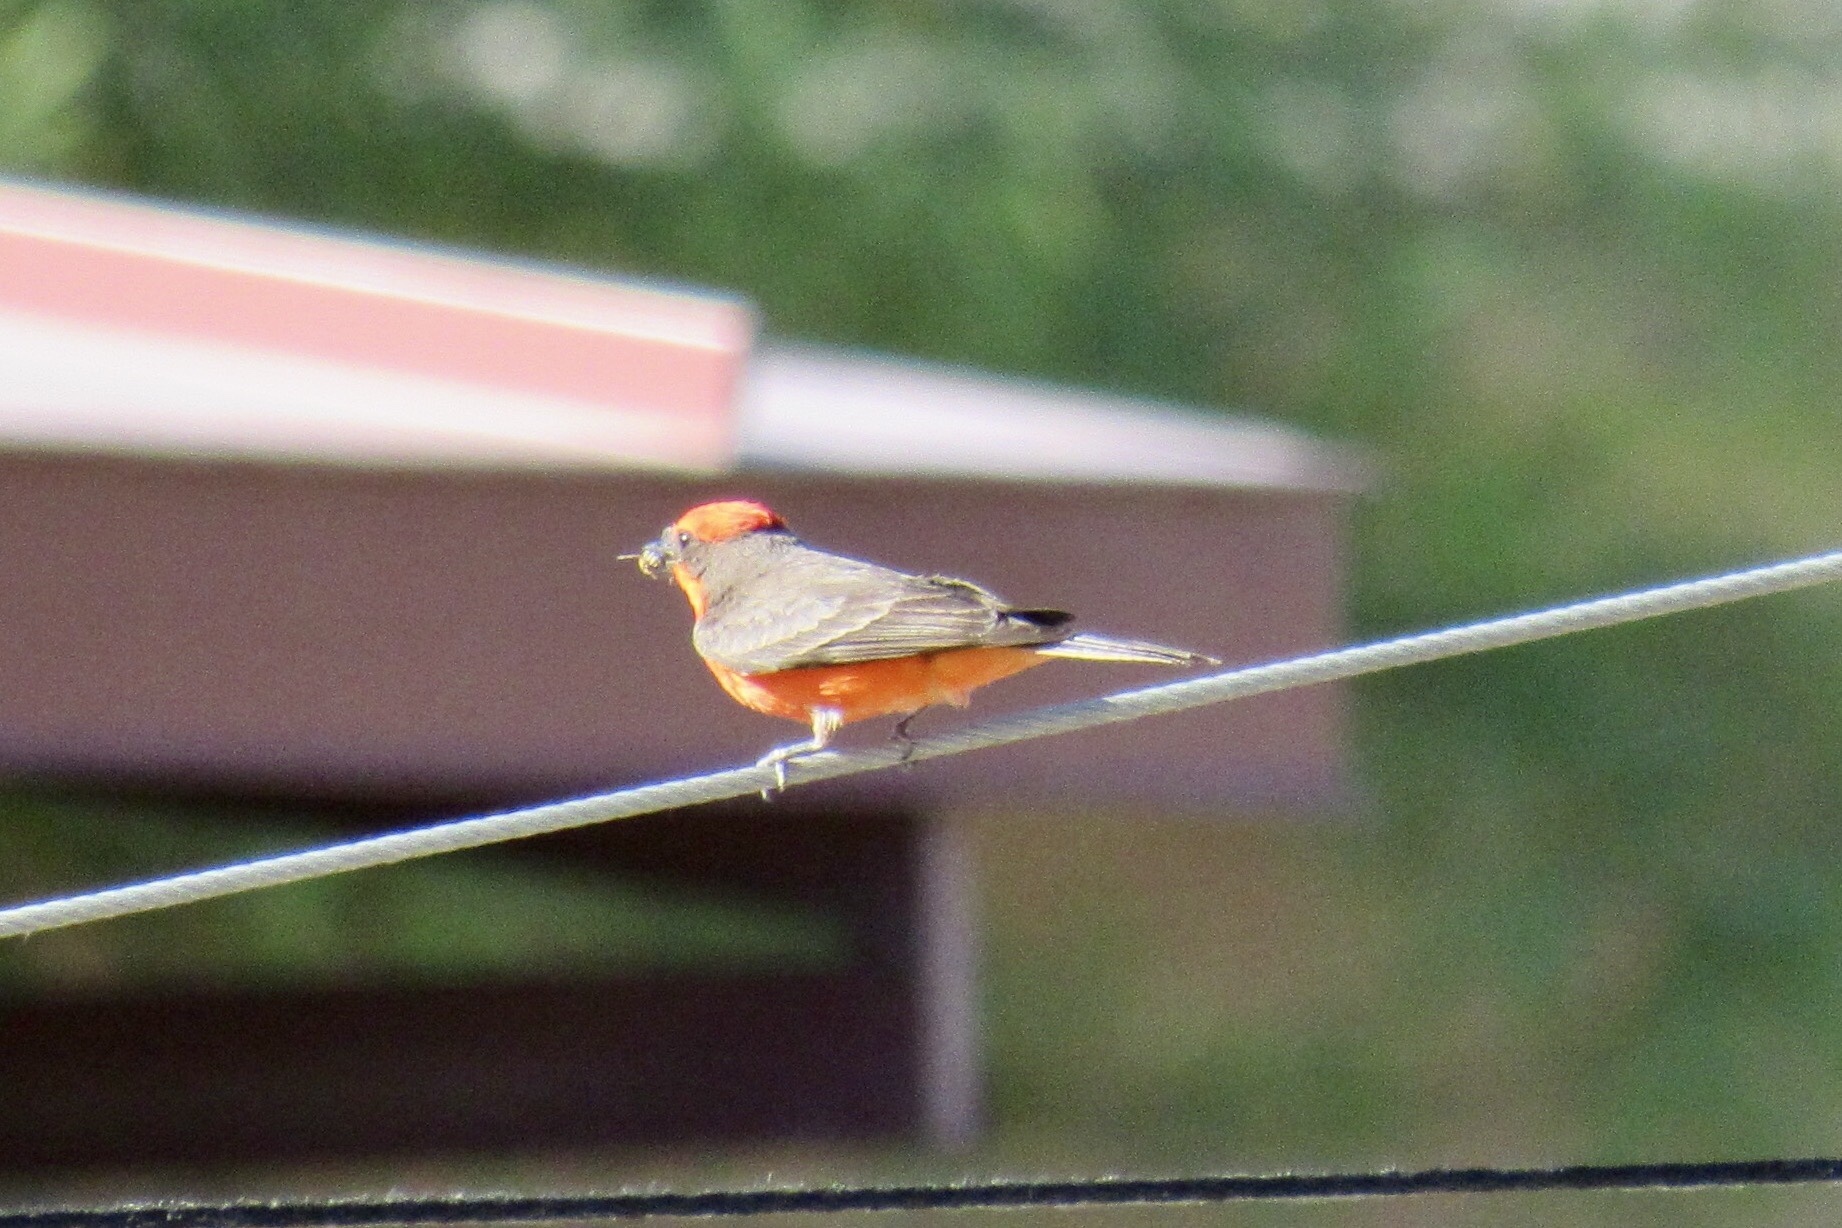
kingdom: Animalia
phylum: Chordata
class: Aves
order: Passeriformes
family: Tyrannidae
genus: Pyrocephalus
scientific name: Pyrocephalus rubinus
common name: Vermilion flycatcher
